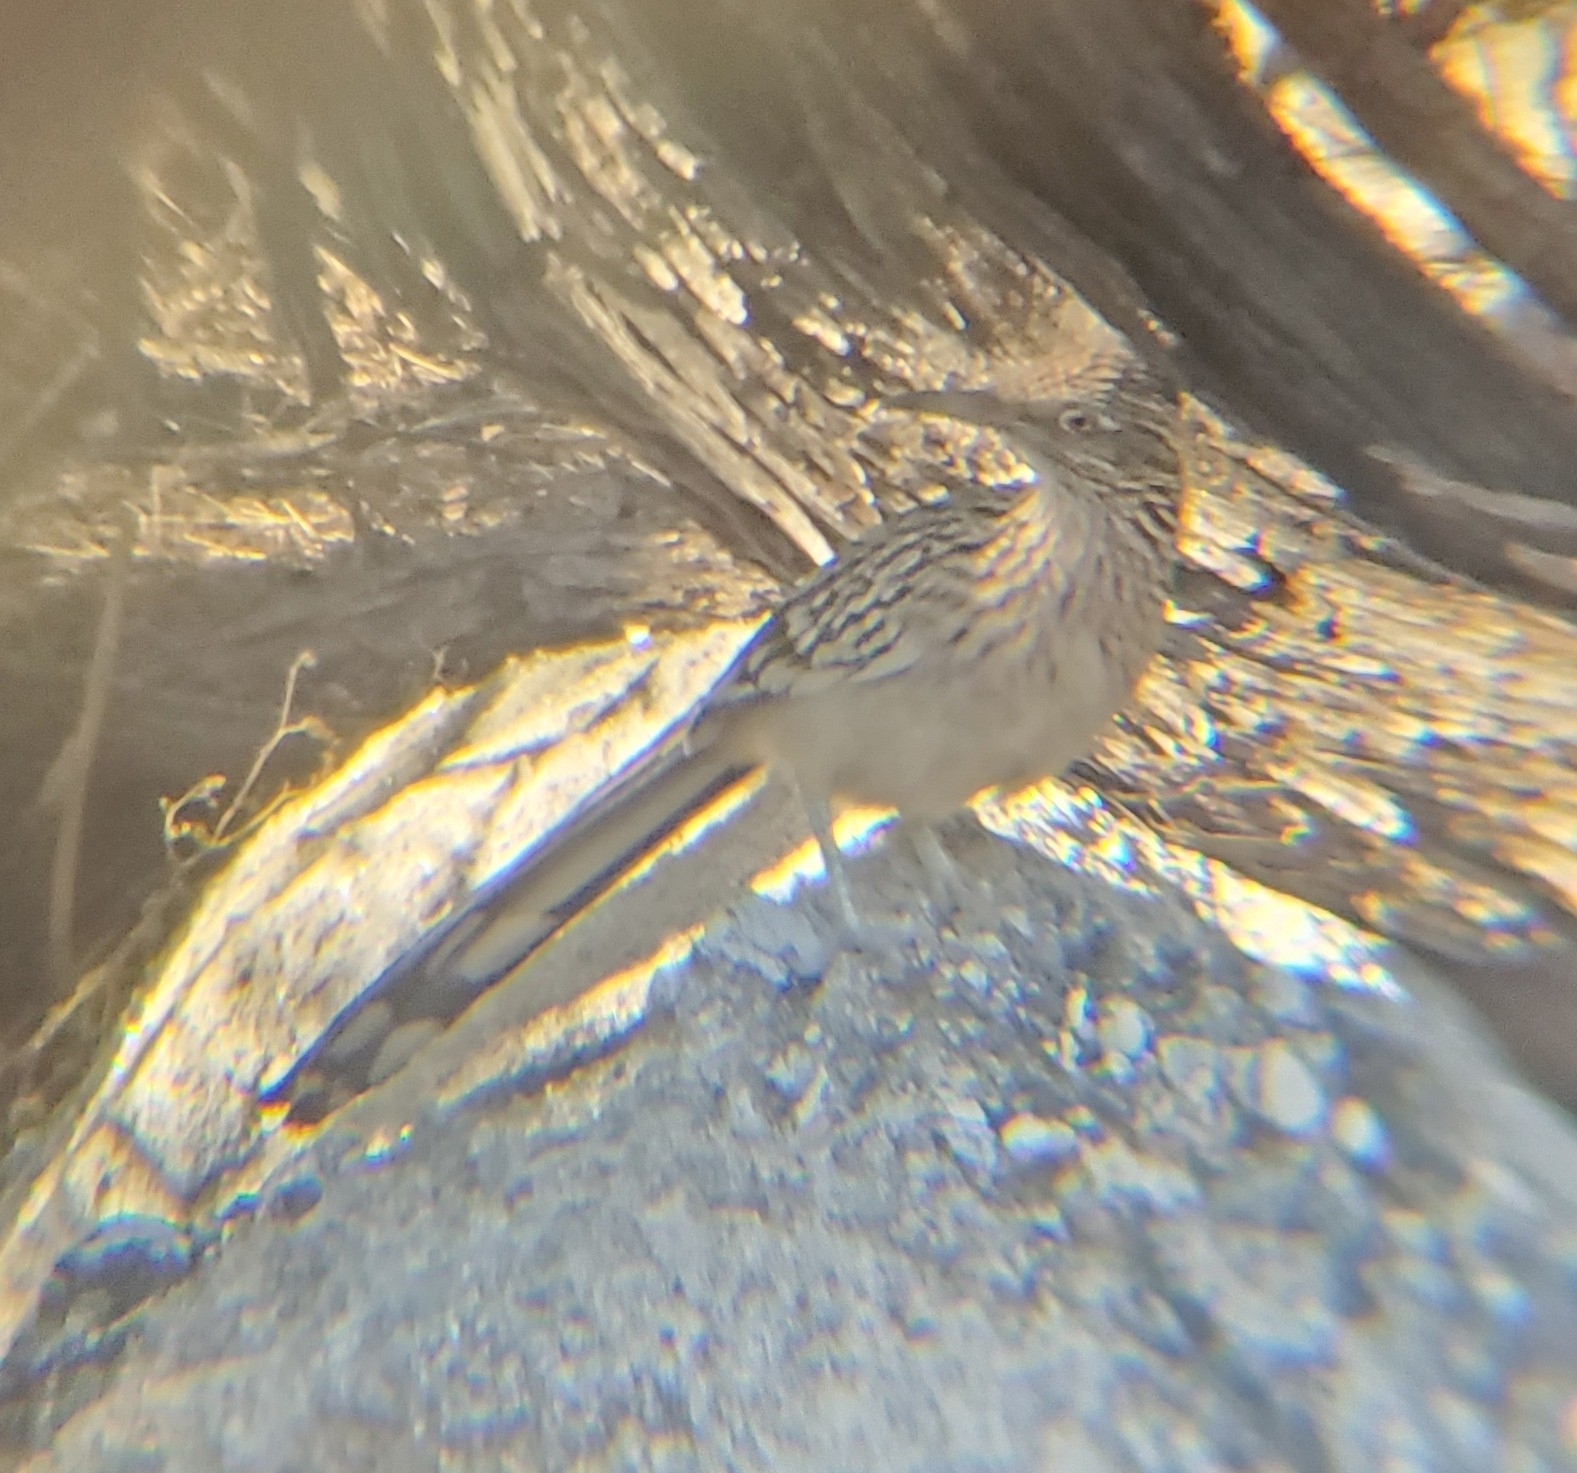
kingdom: Animalia
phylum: Chordata
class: Aves
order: Cuculiformes
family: Cuculidae
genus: Geococcyx
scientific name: Geococcyx californianus
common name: Greater roadrunner
